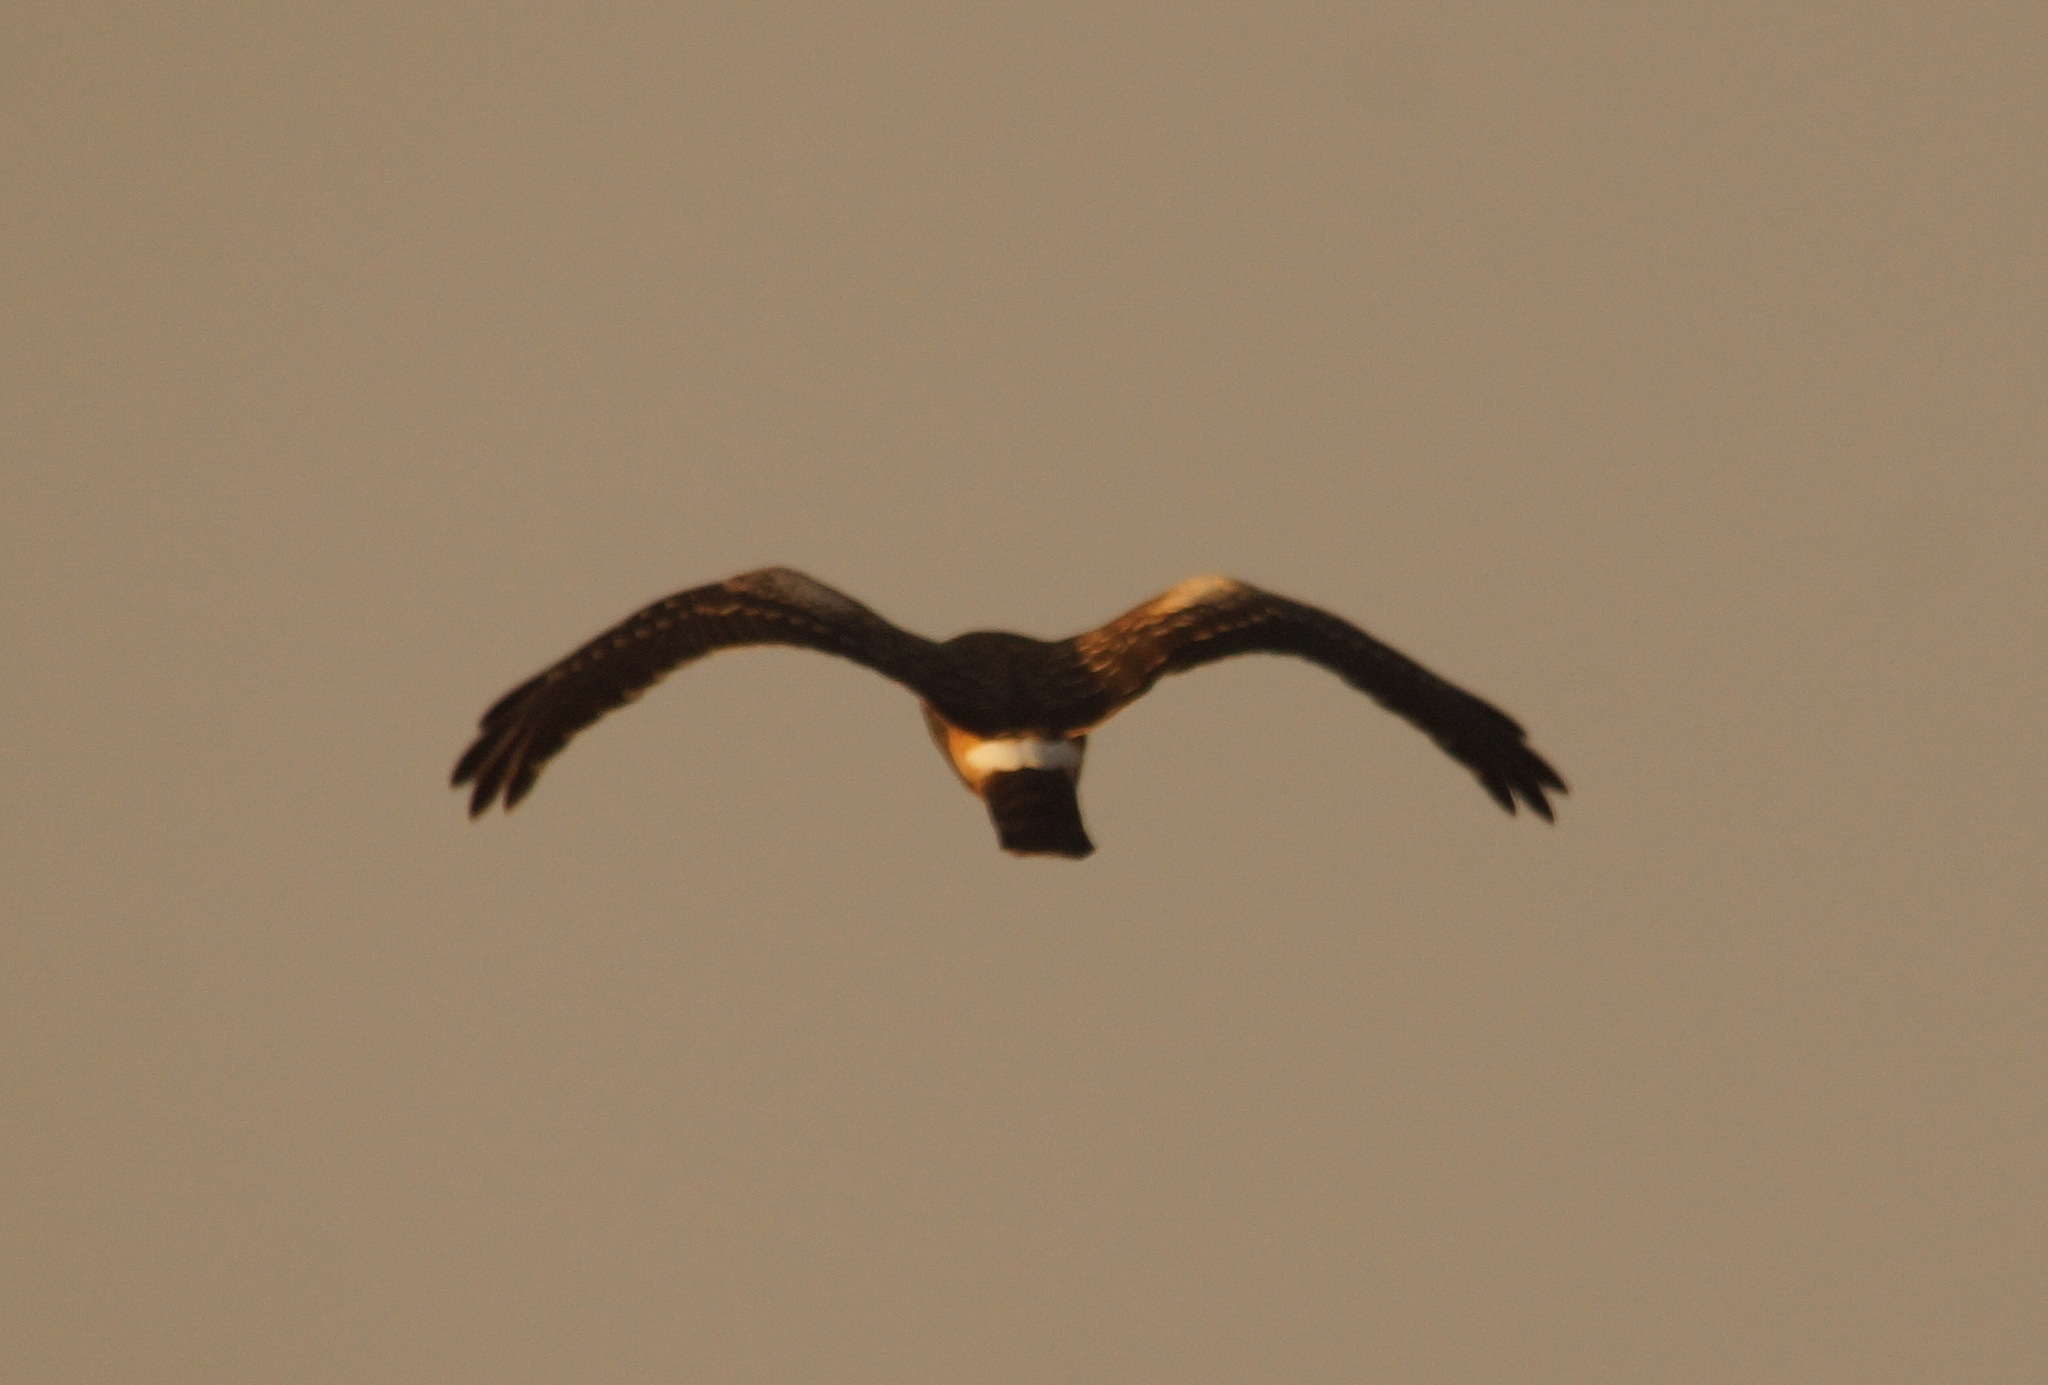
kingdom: Animalia
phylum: Chordata
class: Aves
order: Accipitriformes
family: Accipitridae
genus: Circus
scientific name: Circus cyaneus
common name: Hen harrier
